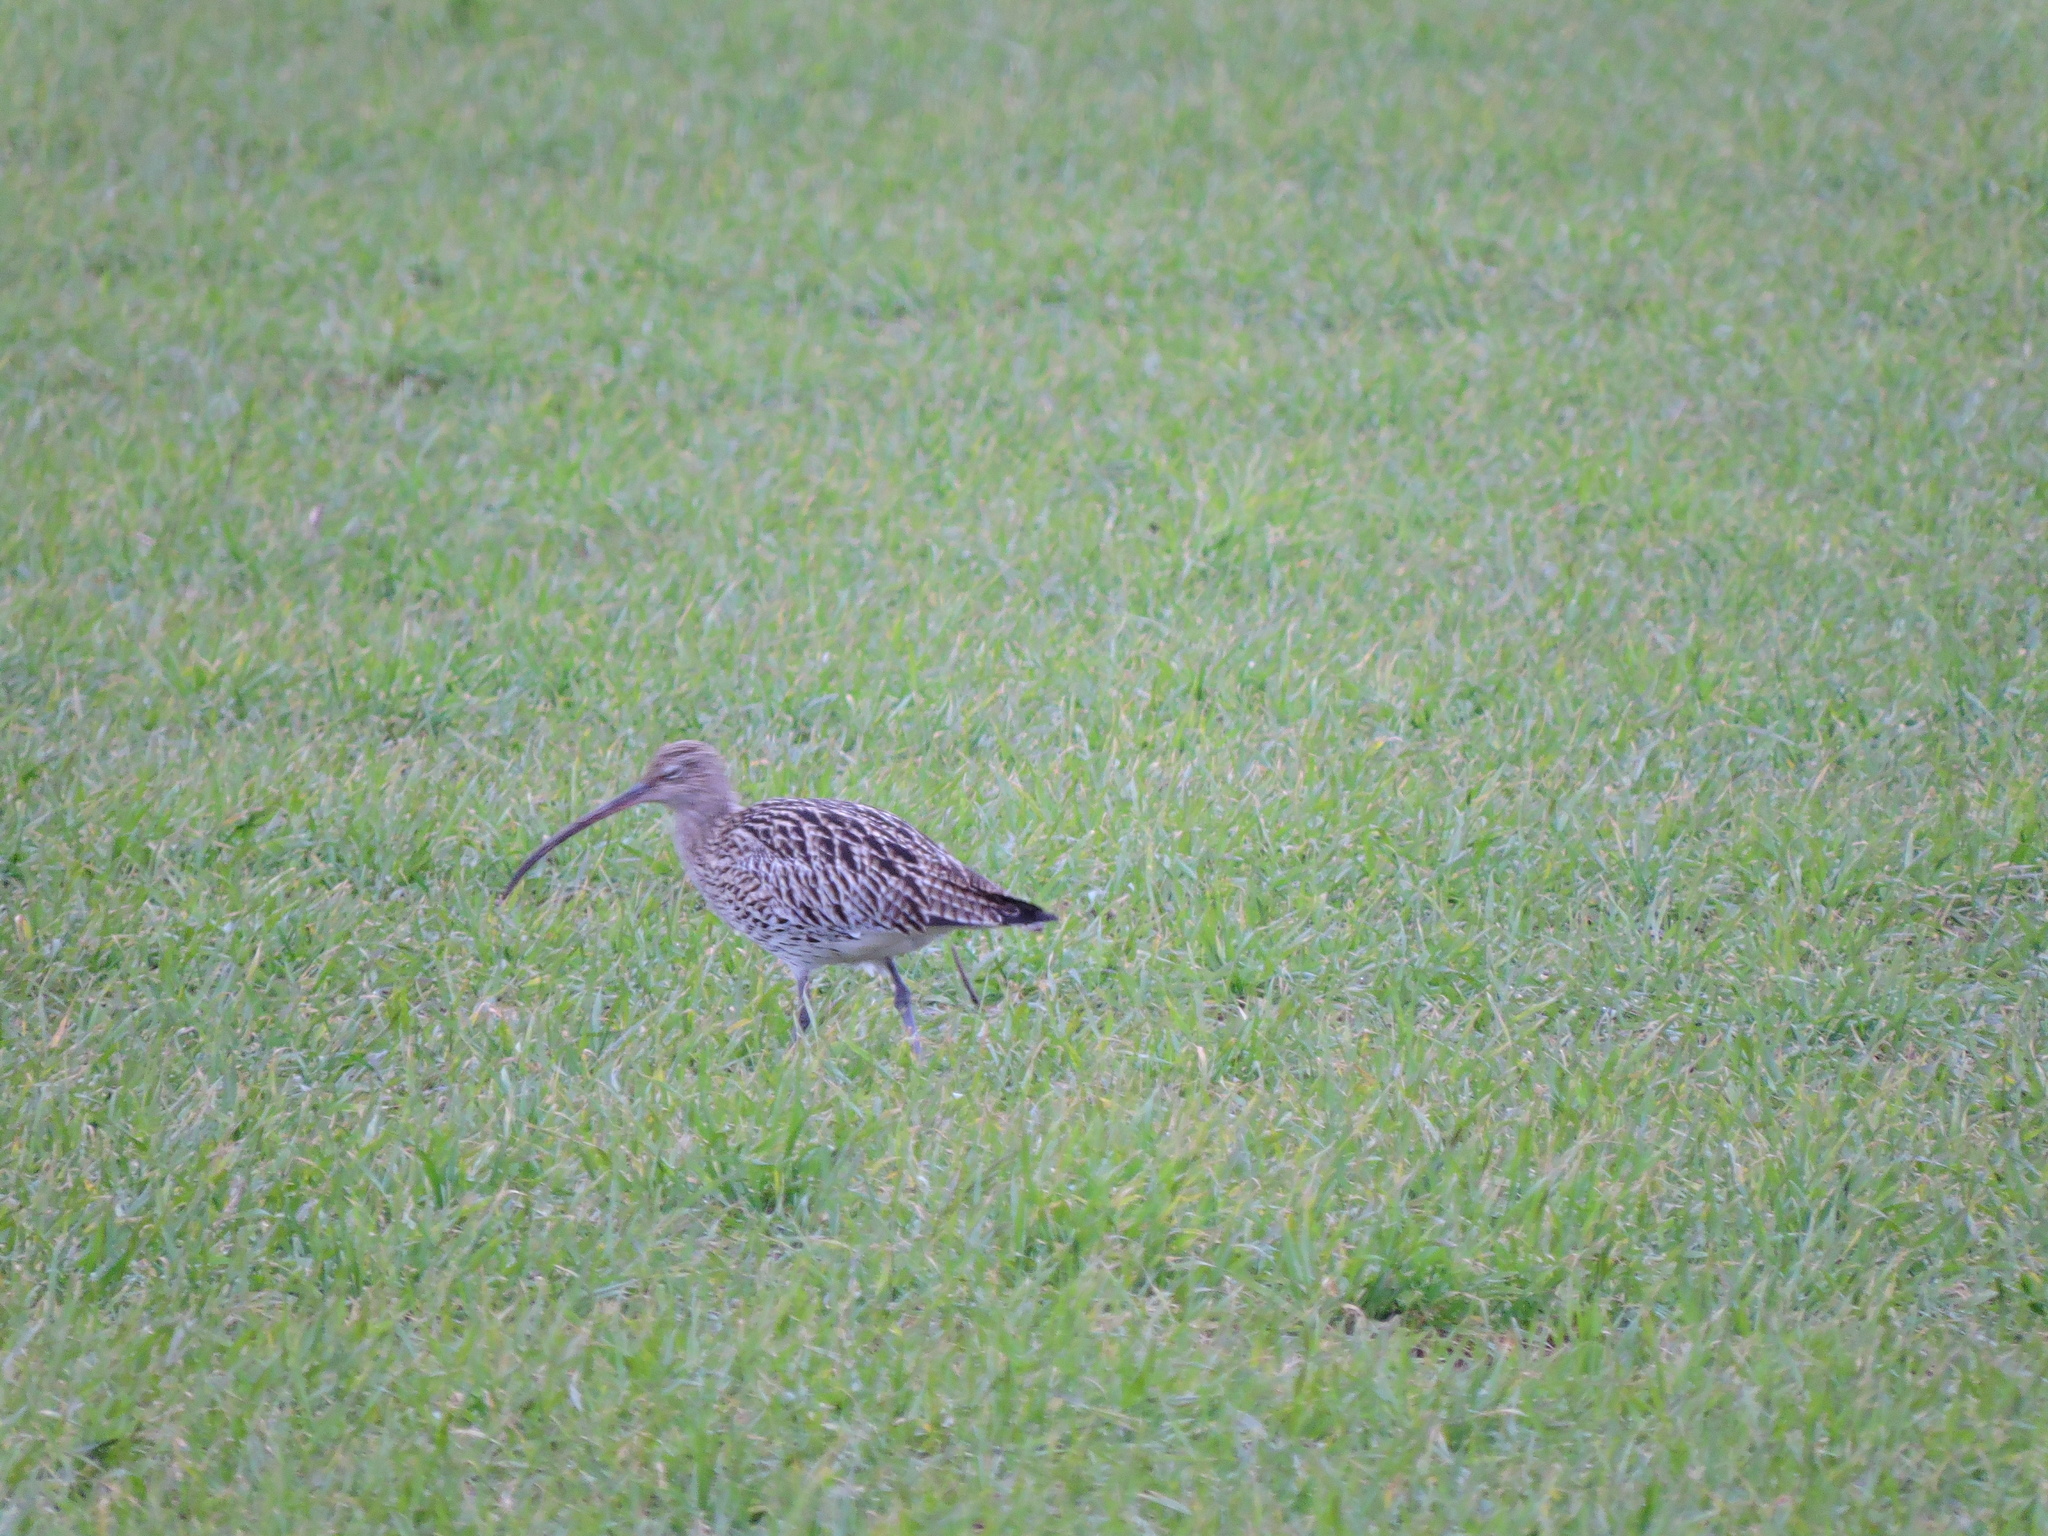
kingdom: Animalia
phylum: Chordata
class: Aves
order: Charadriiformes
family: Scolopacidae
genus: Numenius
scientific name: Numenius arquata
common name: Eurasian curlew
